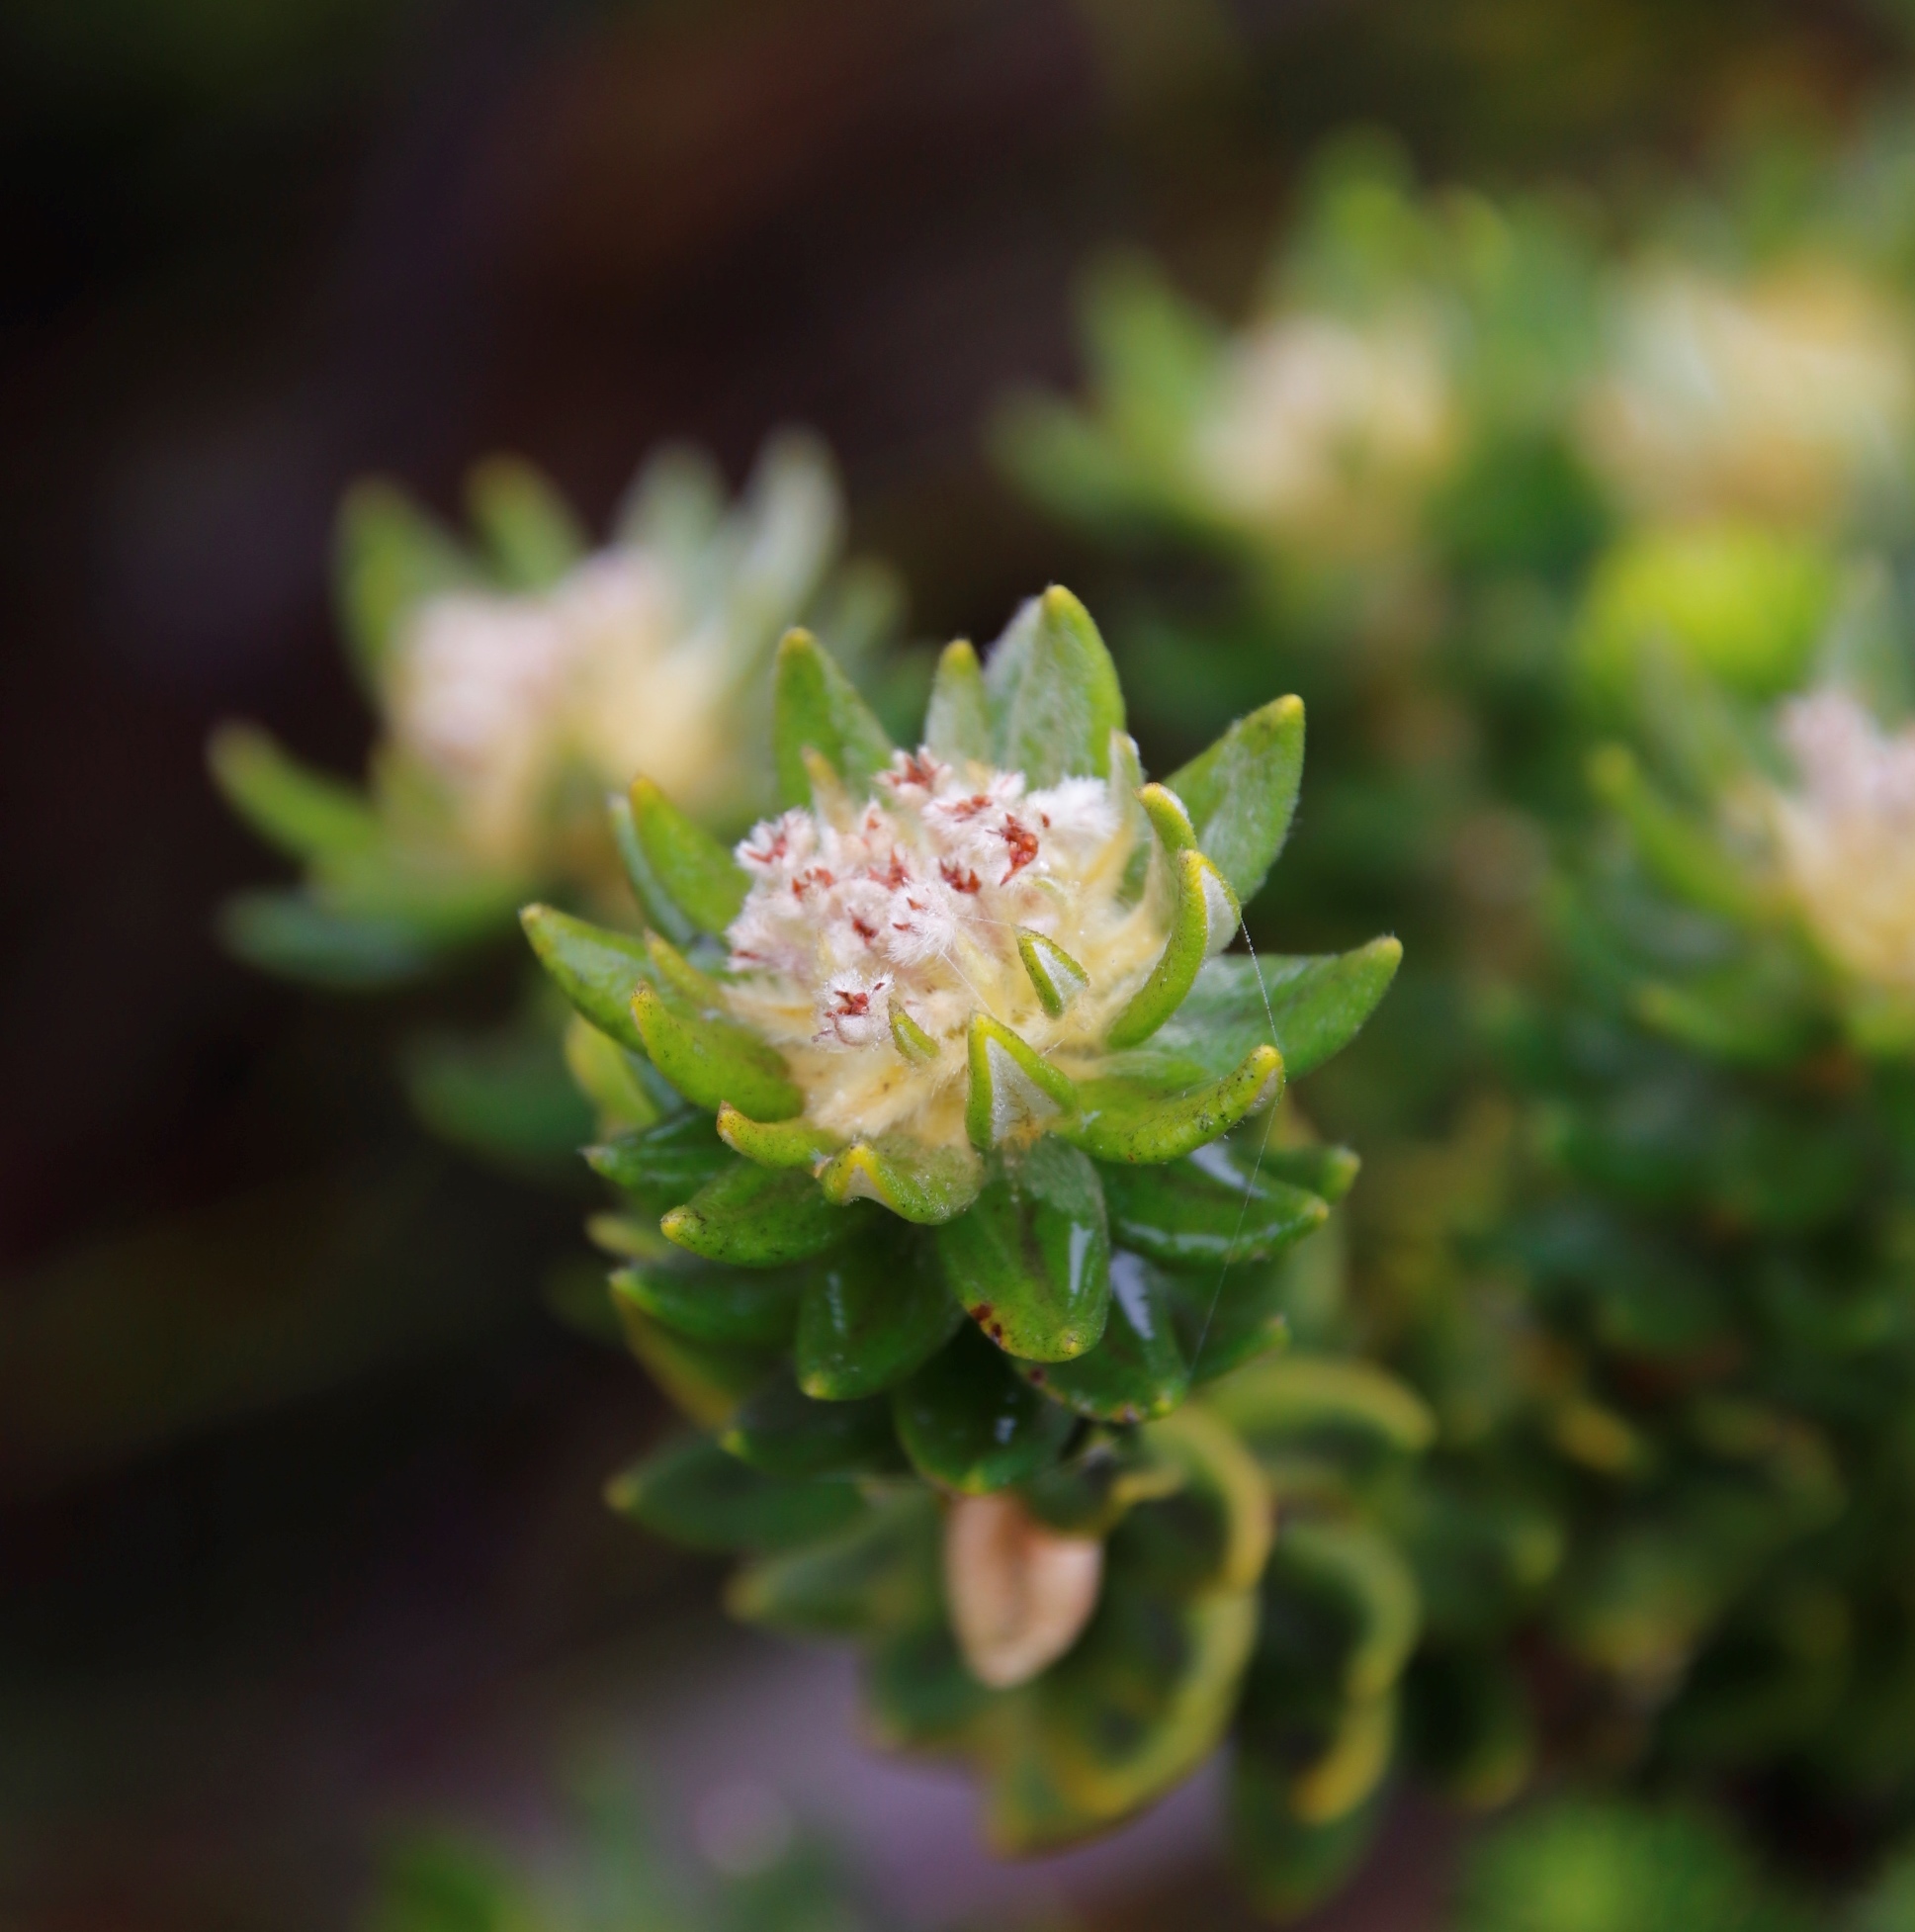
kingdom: Plantae
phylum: Tracheophyta
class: Magnoliopsida
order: Rosales
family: Rhamnaceae
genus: Phylica
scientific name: Phylica dioica
